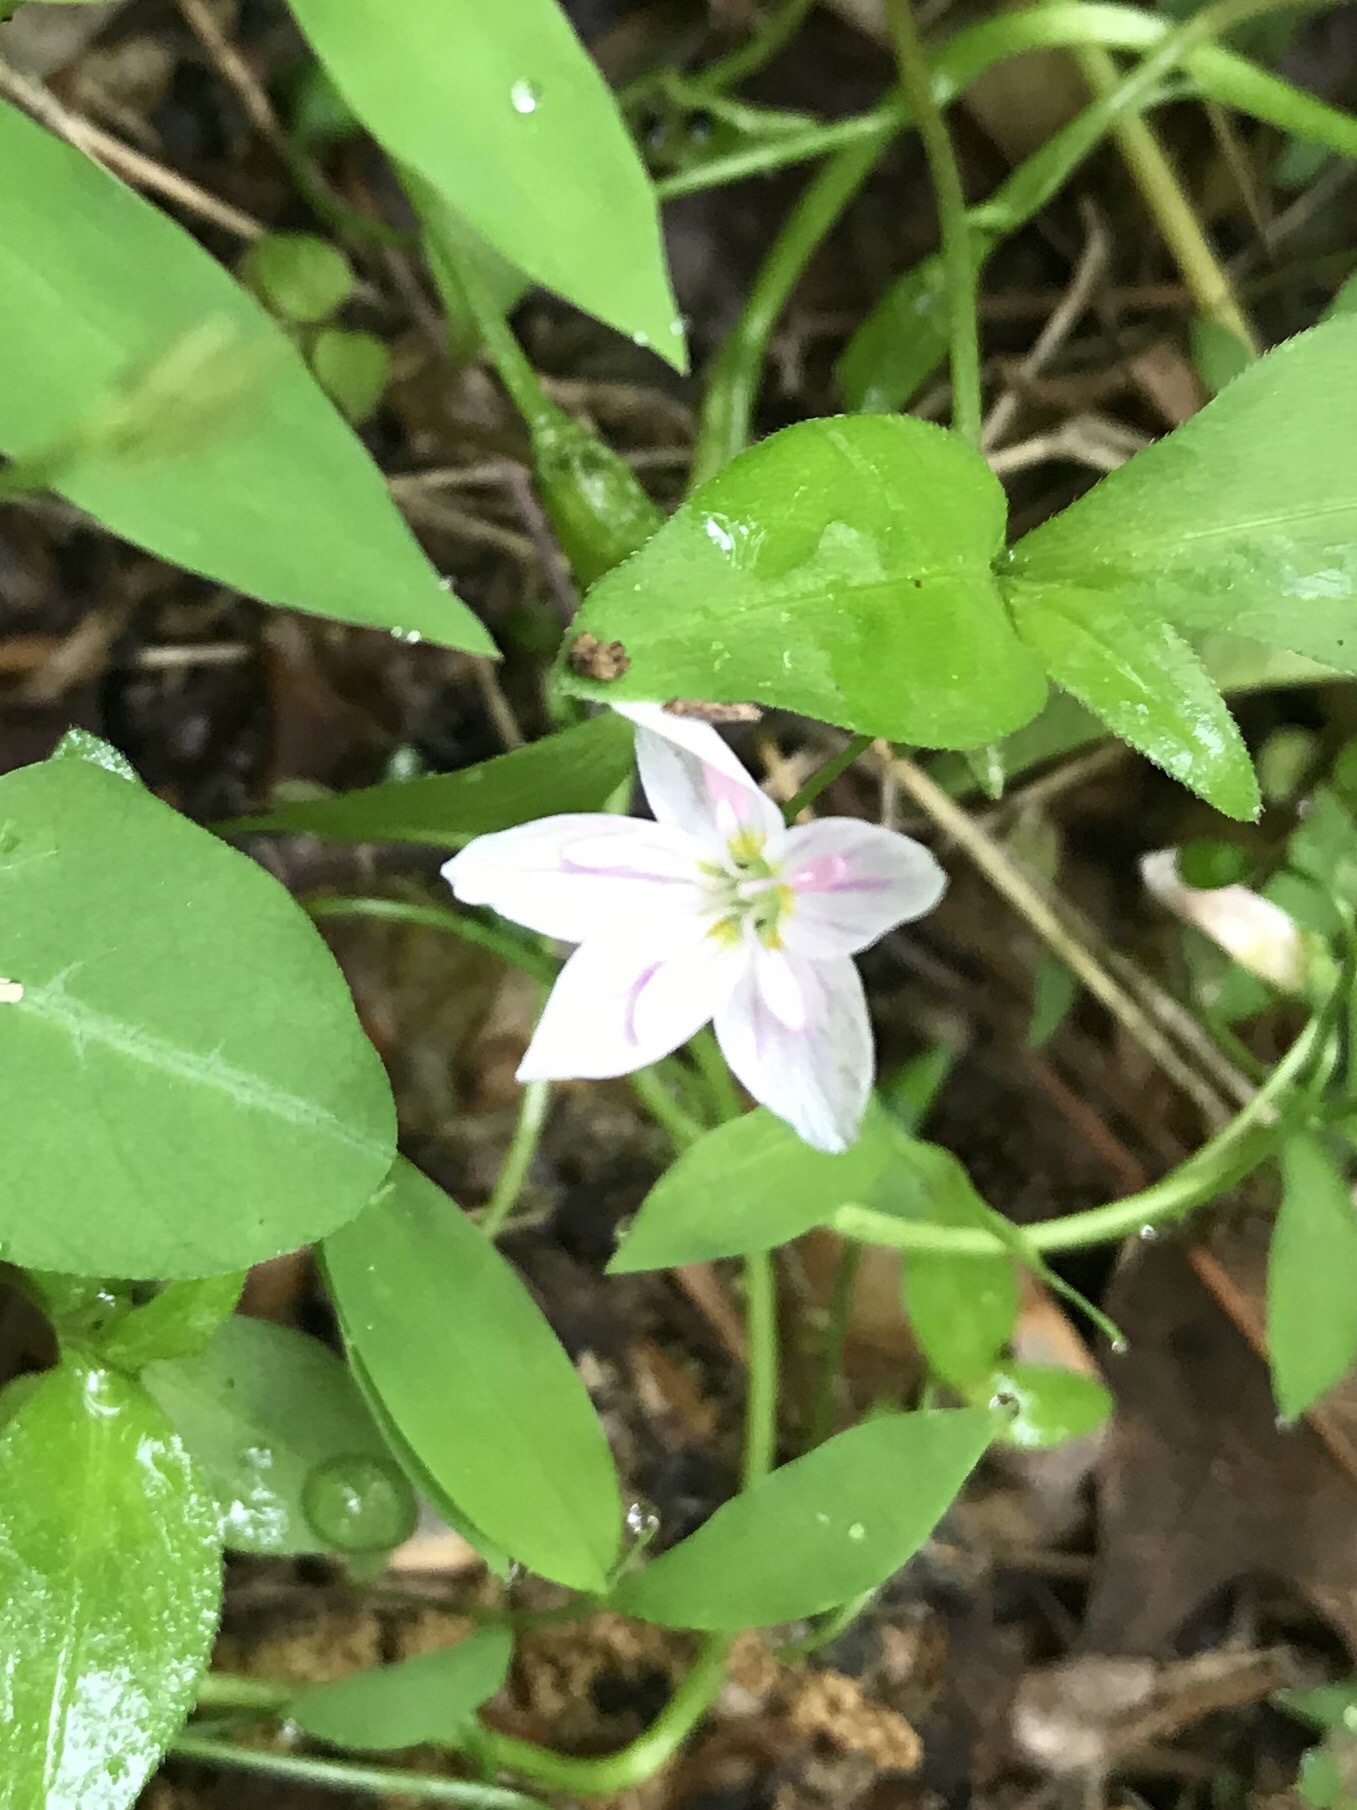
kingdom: Plantae
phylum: Tracheophyta
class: Magnoliopsida
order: Caryophyllales
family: Montiaceae
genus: Claytonia
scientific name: Claytonia virginica
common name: Virginia springbeauty
